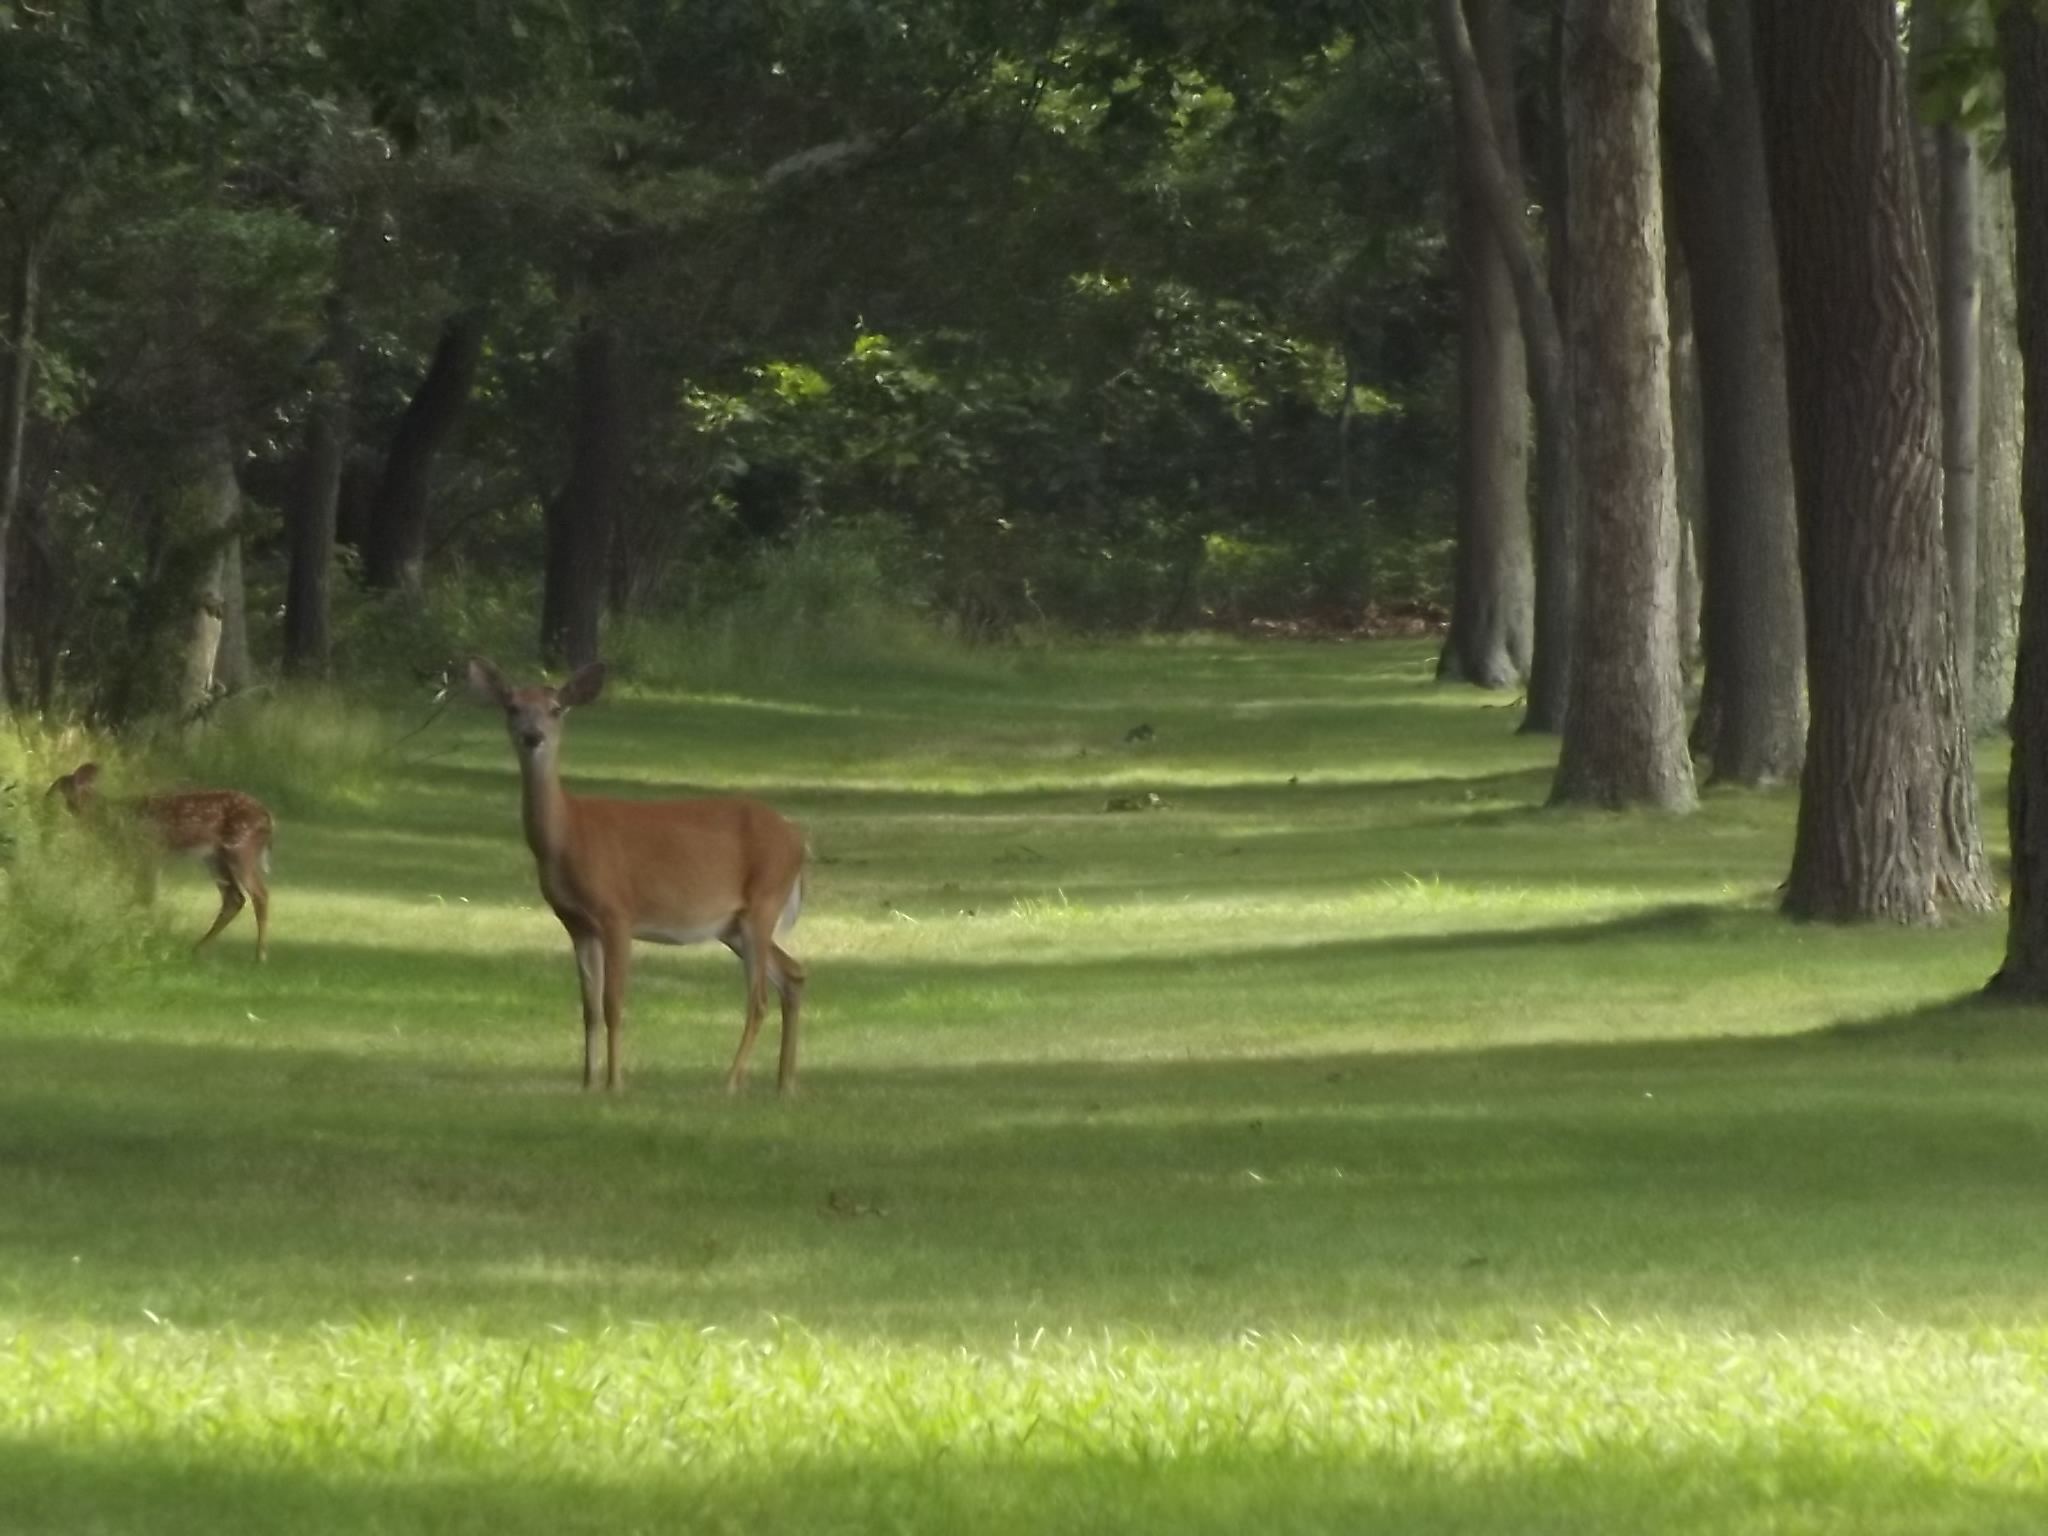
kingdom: Animalia
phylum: Chordata
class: Mammalia
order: Artiodactyla
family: Cervidae
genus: Odocoileus
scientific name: Odocoileus virginianus
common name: White-tailed deer
